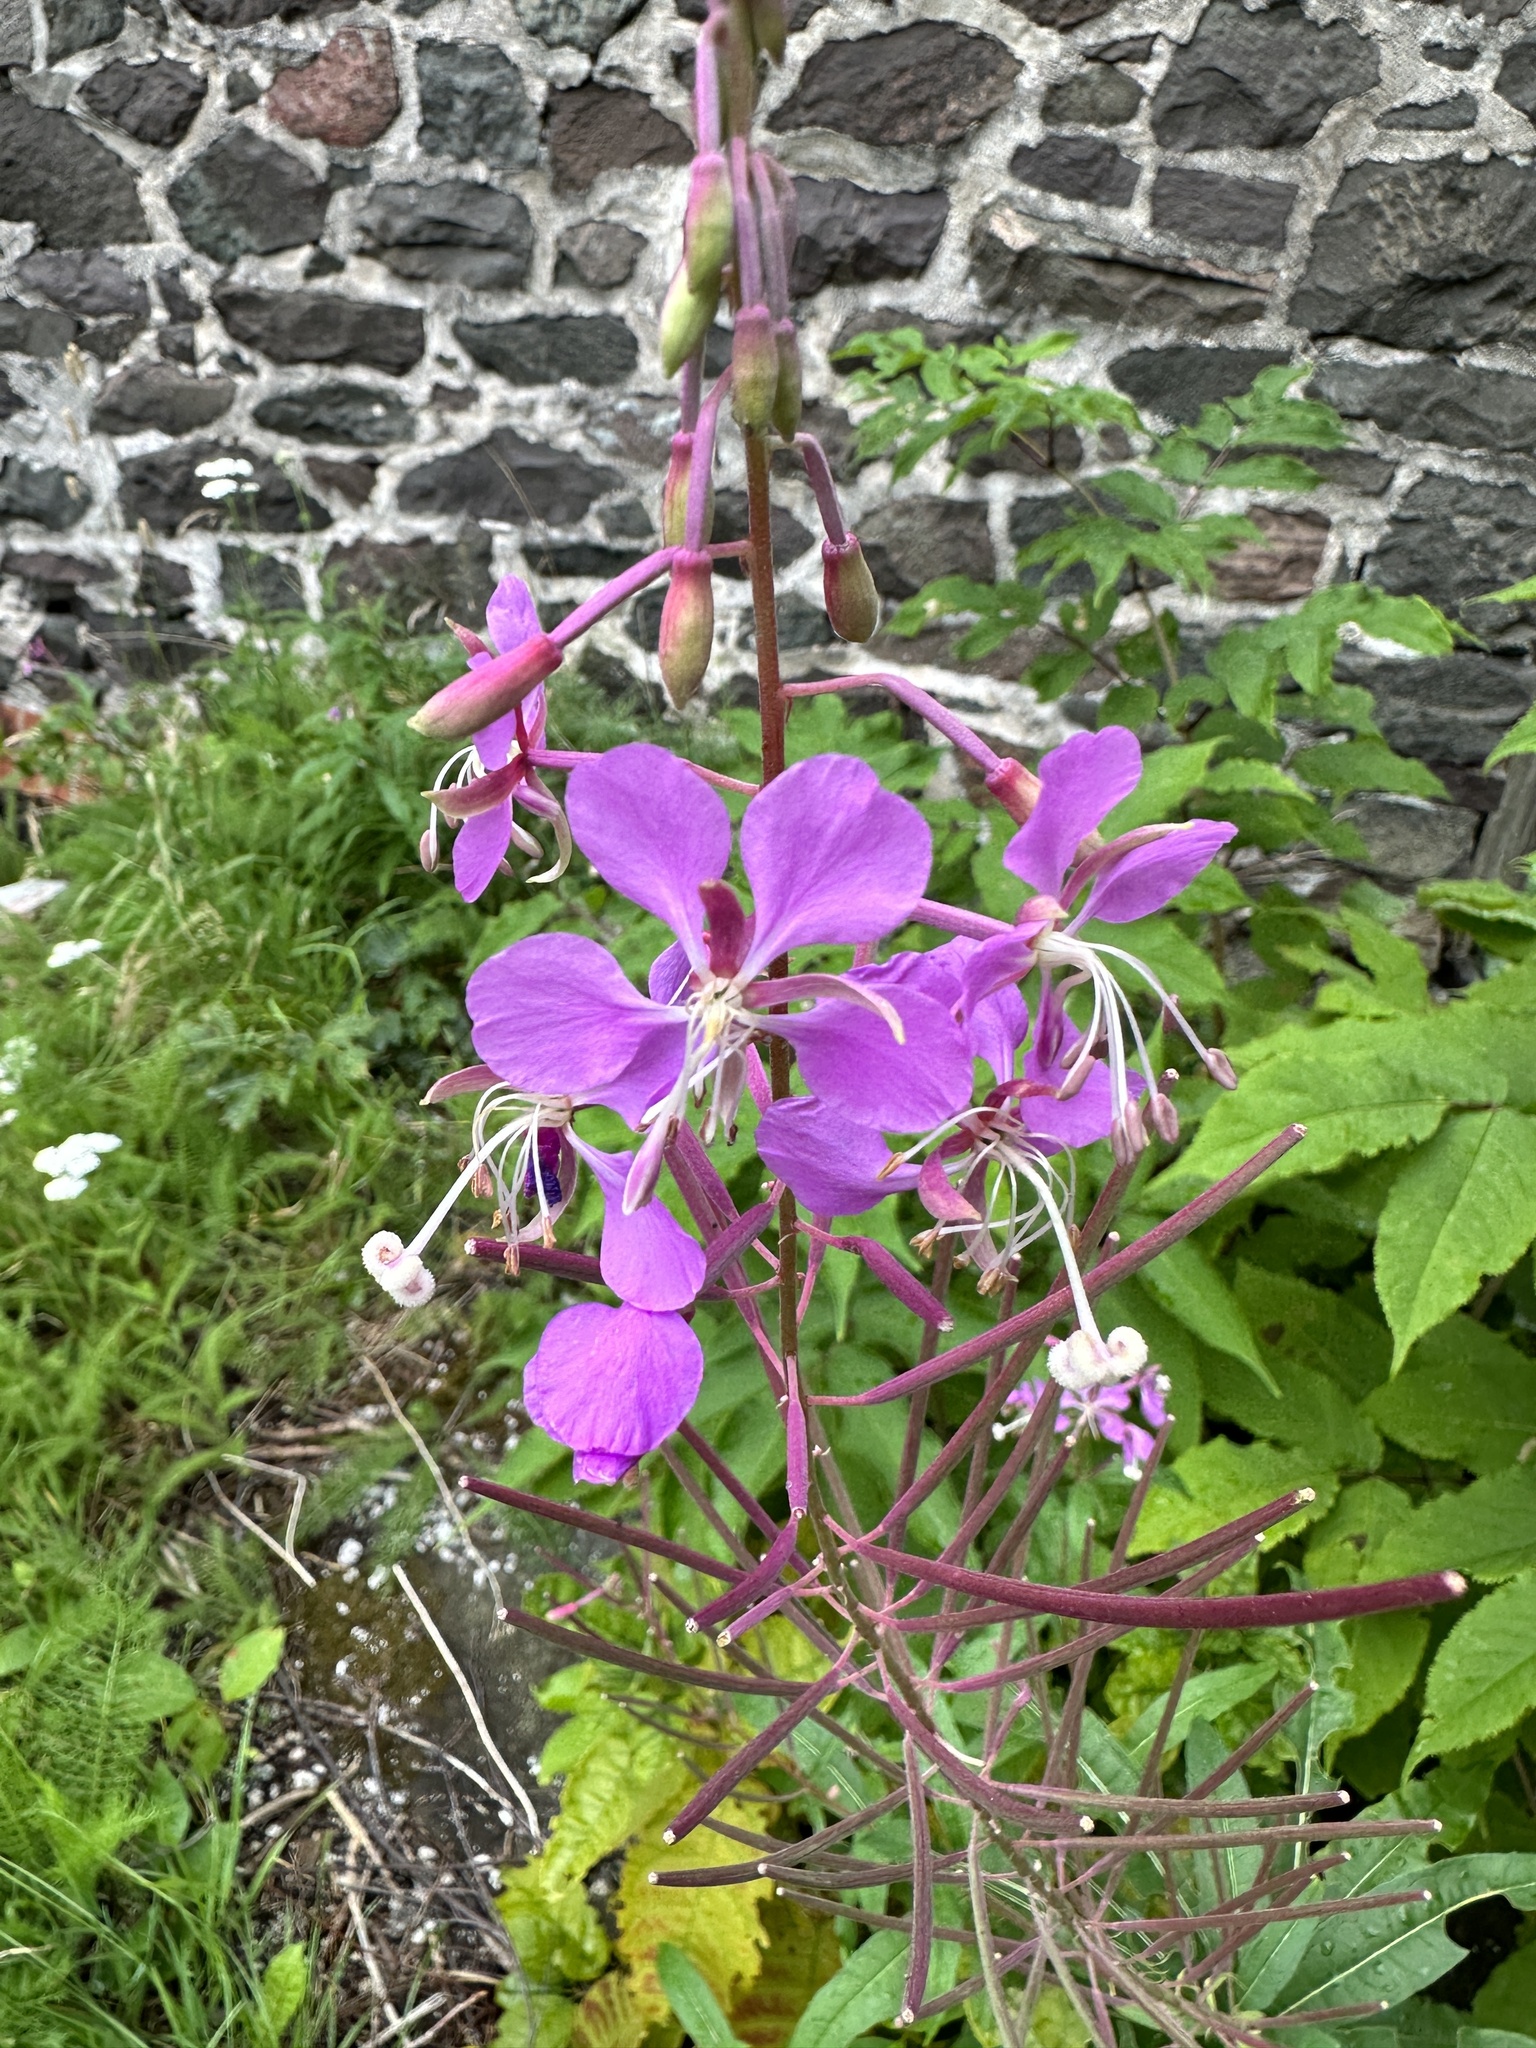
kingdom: Plantae
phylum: Tracheophyta
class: Magnoliopsida
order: Myrtales
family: Onagraceae
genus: Chamaenerion
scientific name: Chamaenerion angustifolium
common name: Fireweed
